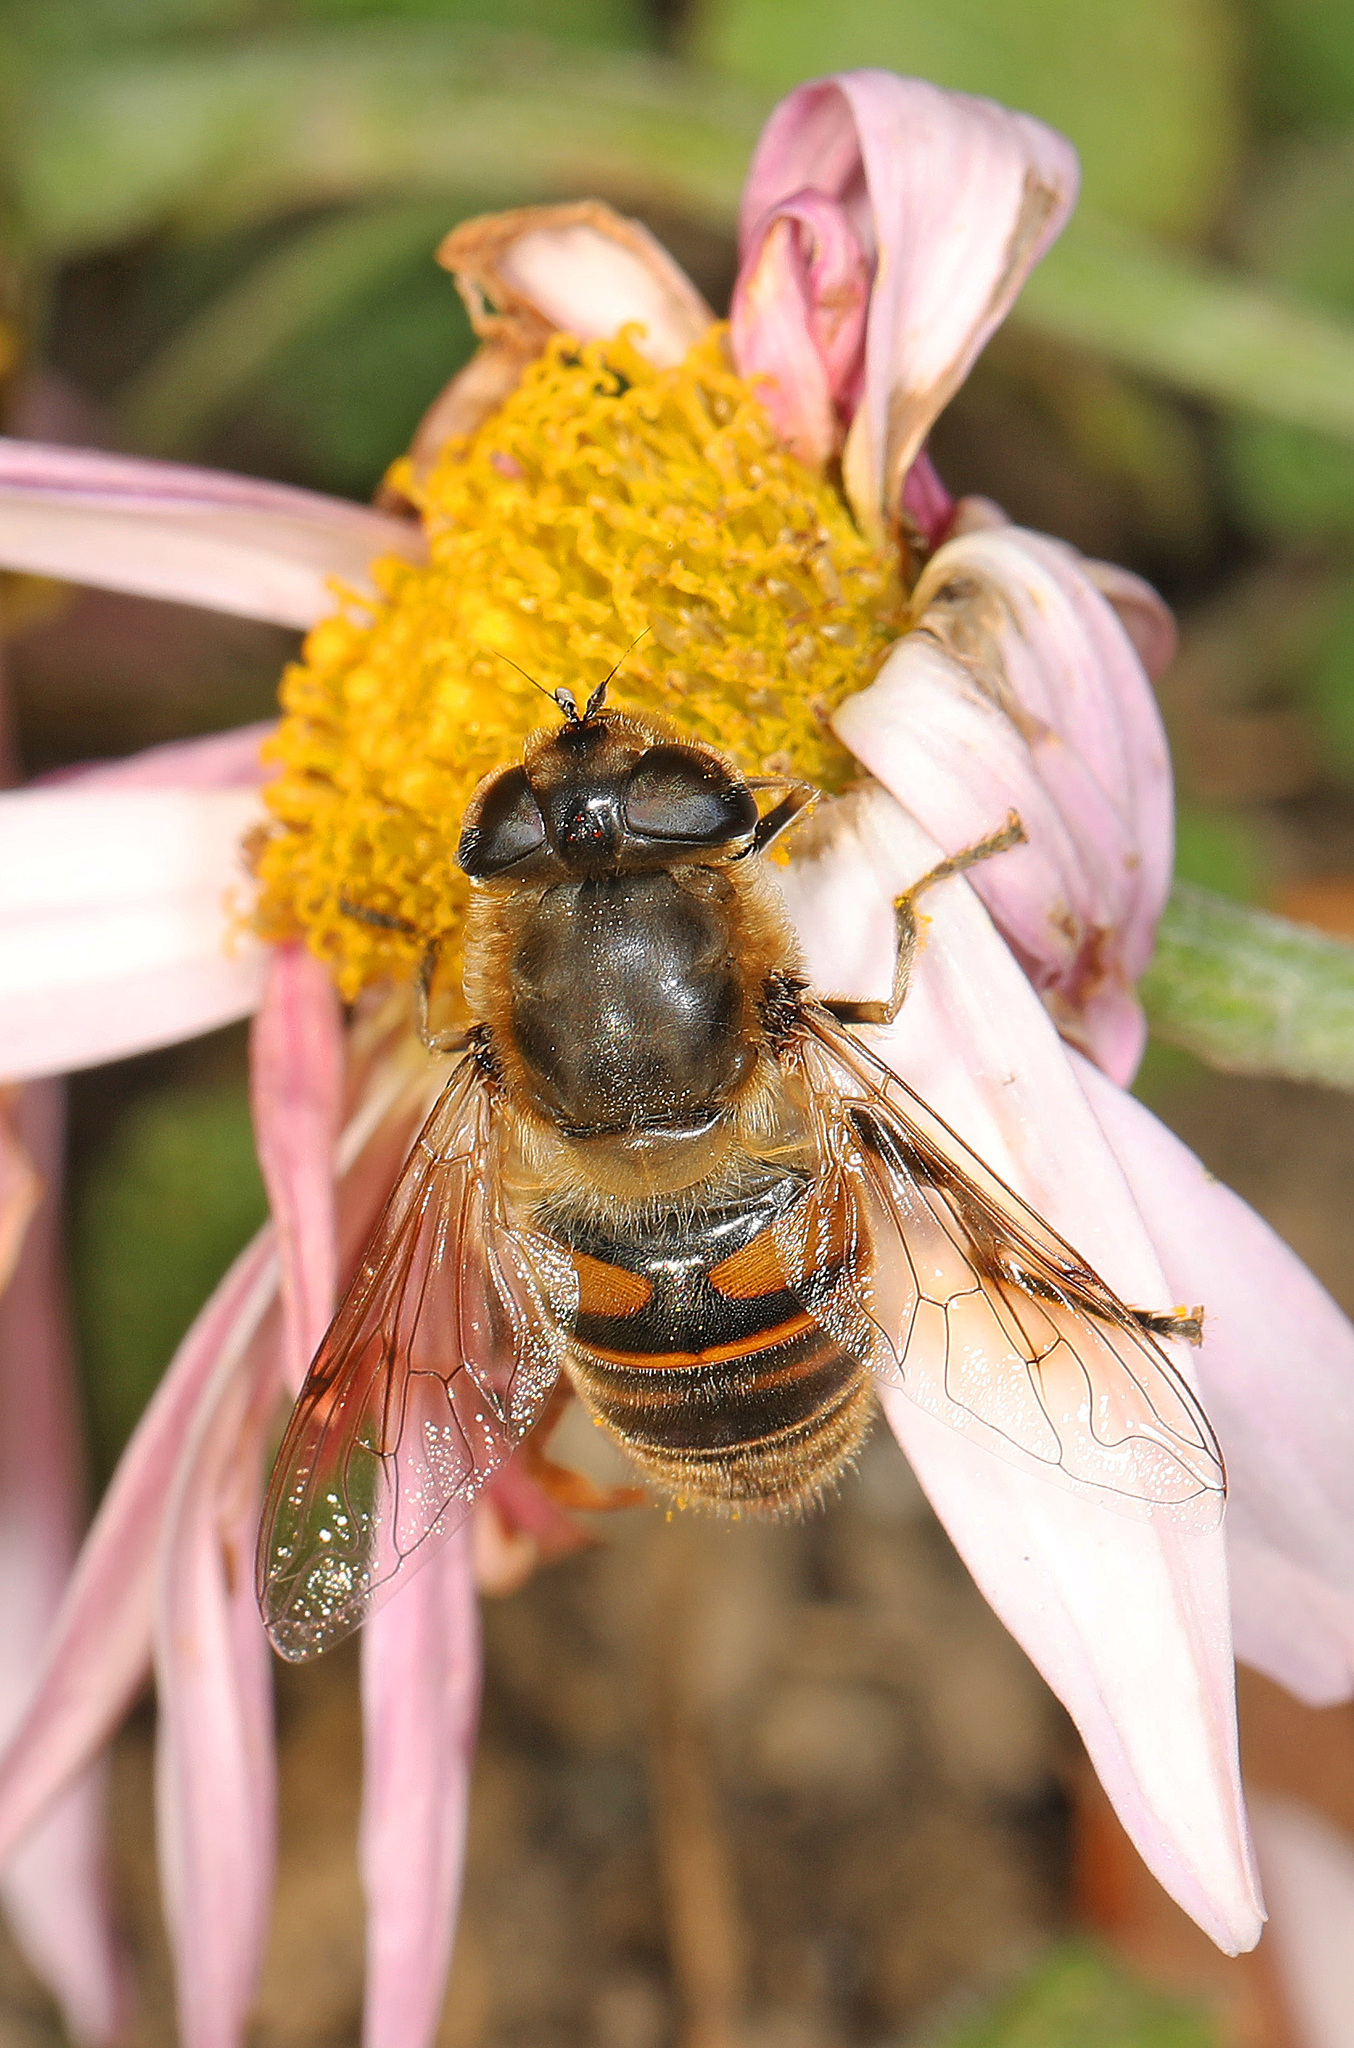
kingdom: Animalia
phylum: Arthropoda
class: Insecta
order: Diptera
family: Syrphidae
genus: Eristalis
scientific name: Eristalis tenax
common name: Drone fly
